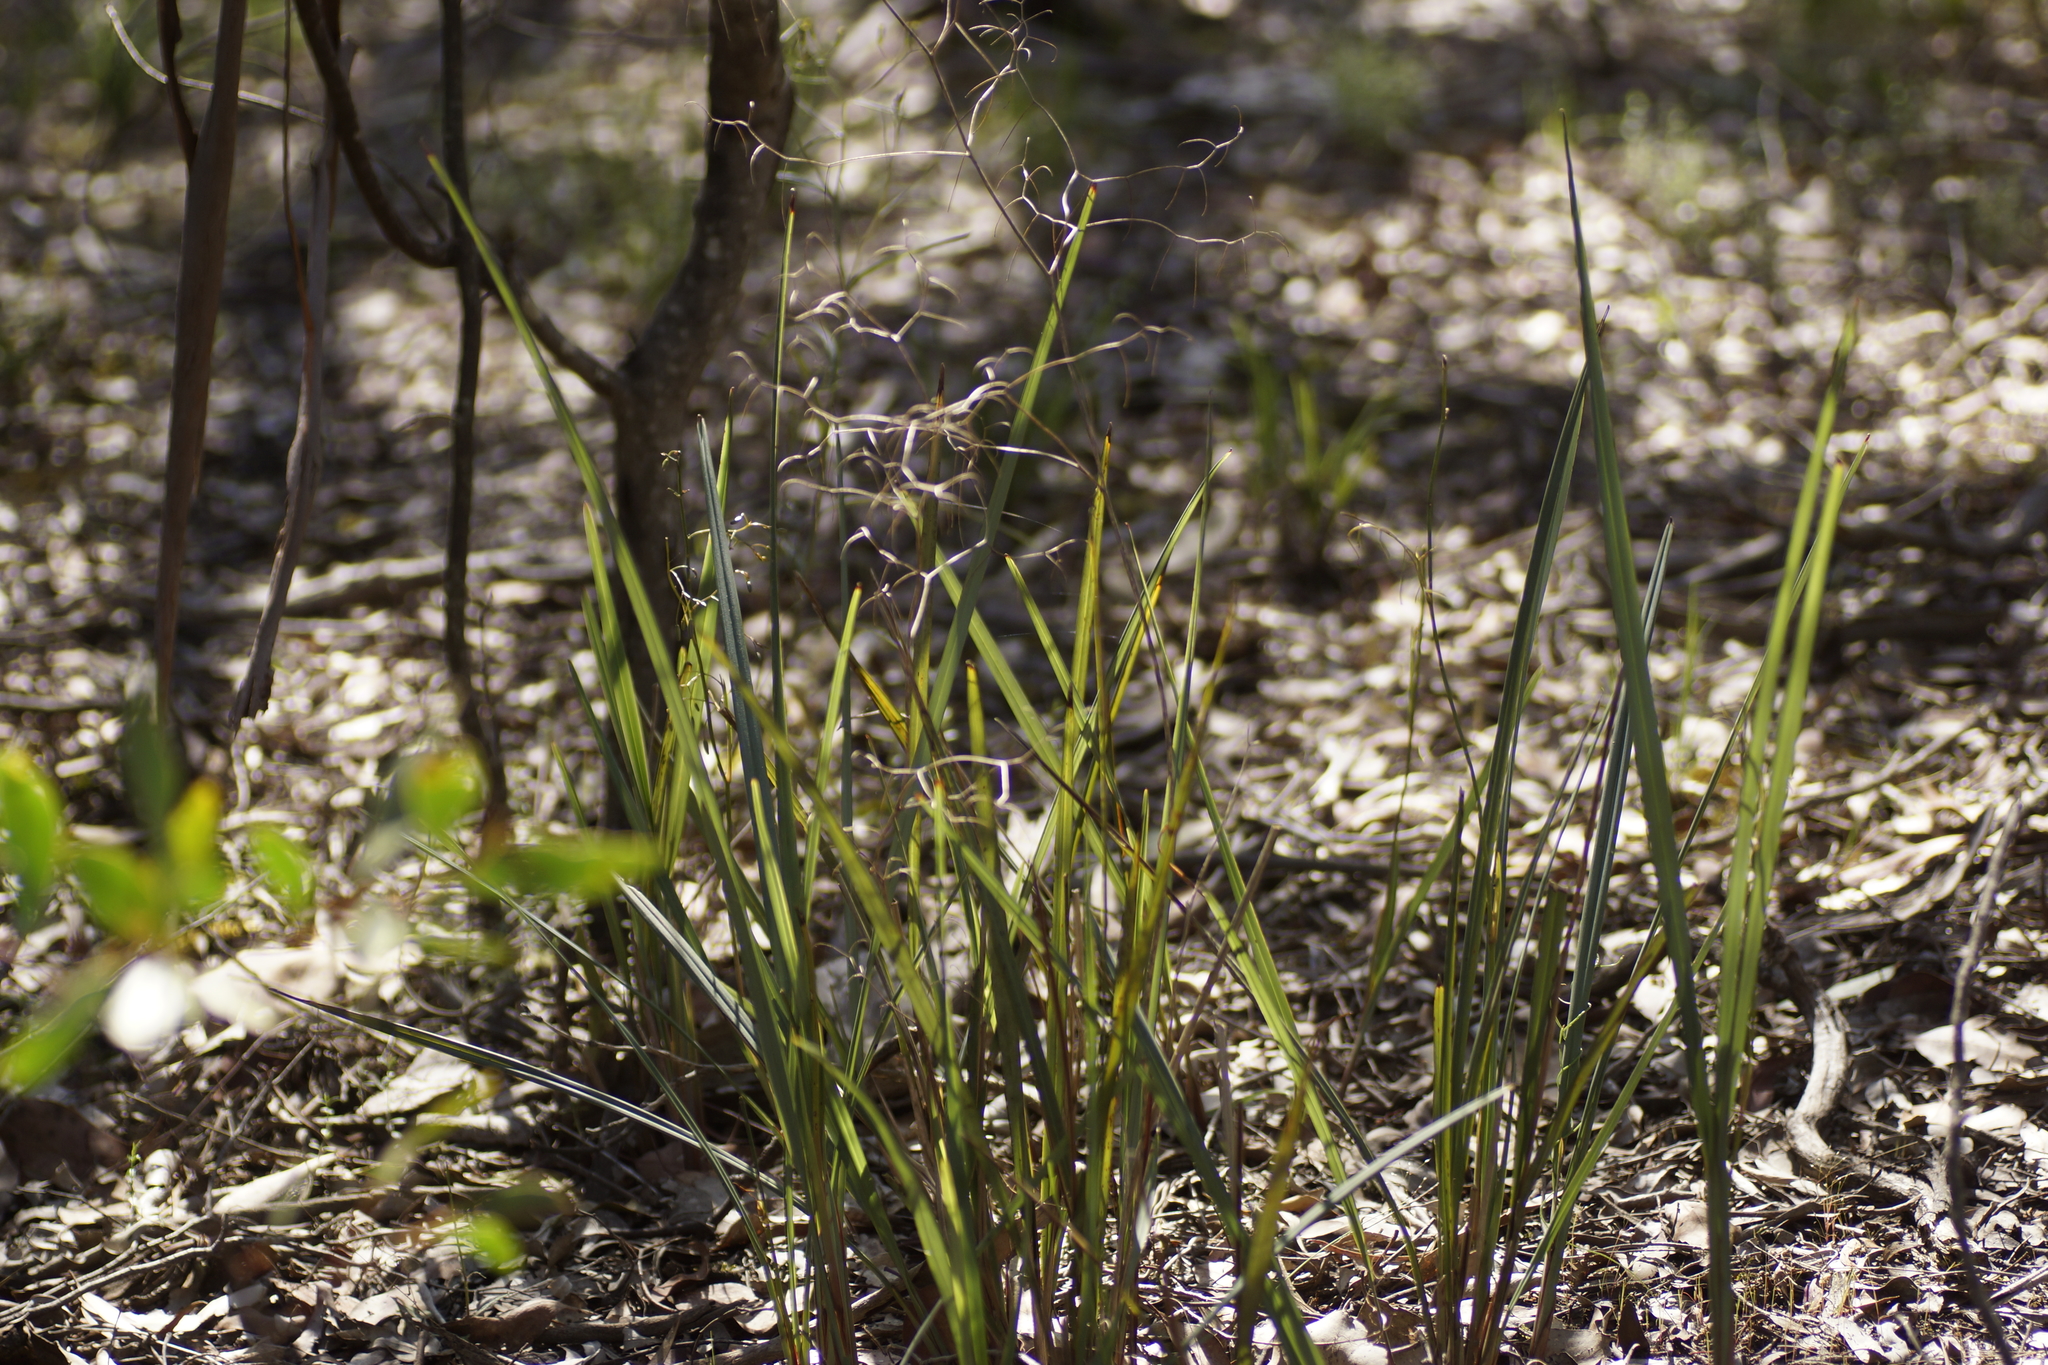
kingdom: Plantae
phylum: Tracheophyta
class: Liliopsida
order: Asparagales
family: Asphodelaceae
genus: Dianella
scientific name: Dianella revoluta
